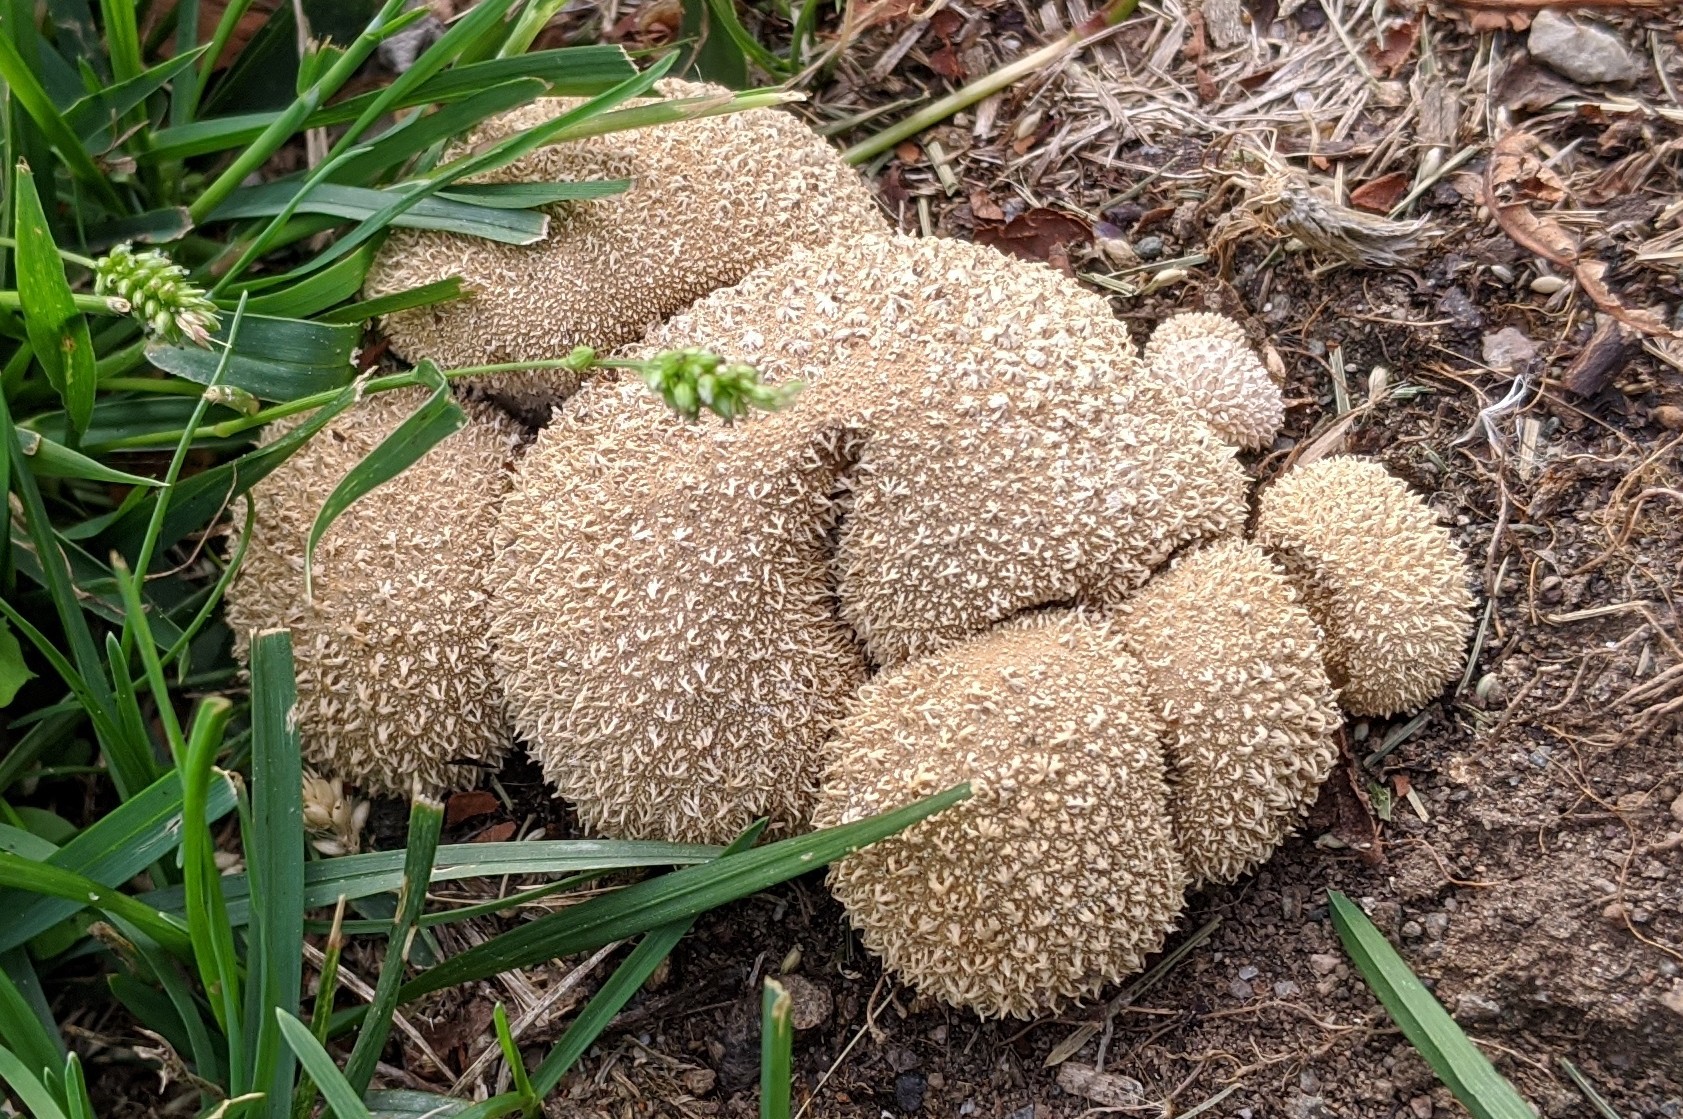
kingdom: Fungi
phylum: Basidiomycota
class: Agaricomycetes
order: Agaricales
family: Agaricaceae
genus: Lycoperdon
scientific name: Lycoperdon marginatum
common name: Peeling puffball
